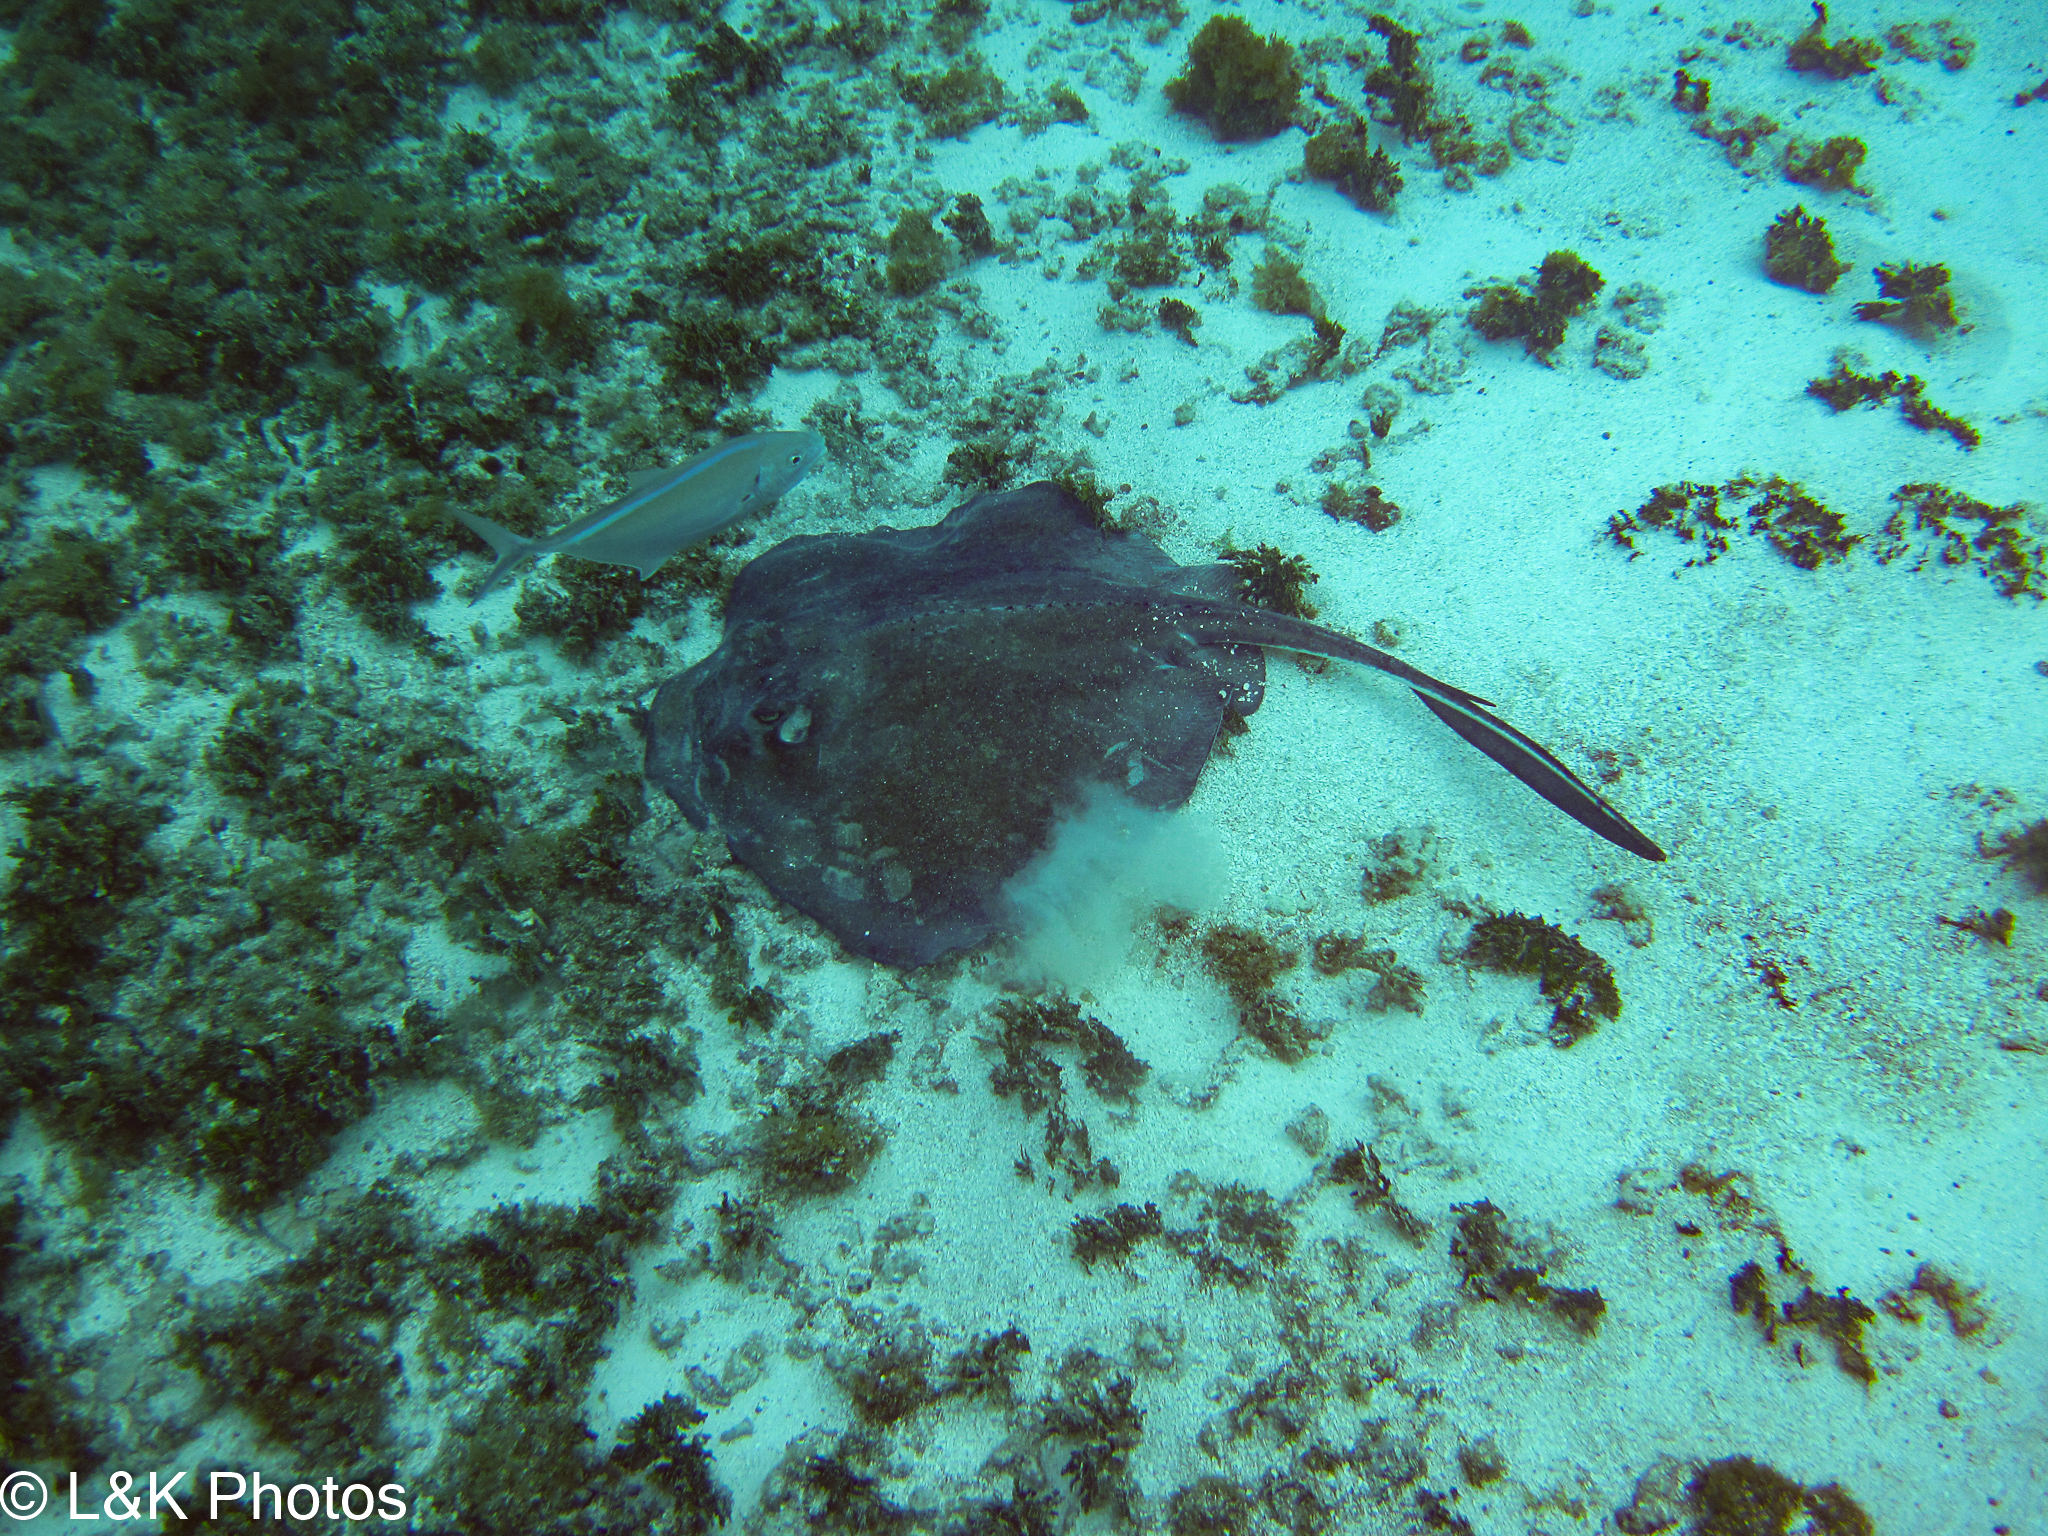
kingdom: Animalia
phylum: Chordata
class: Elasmobranchii
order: Myliobatiformes
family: Dasyatidae
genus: Hypanus
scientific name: Hypanus americanus
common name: Southern stingray
